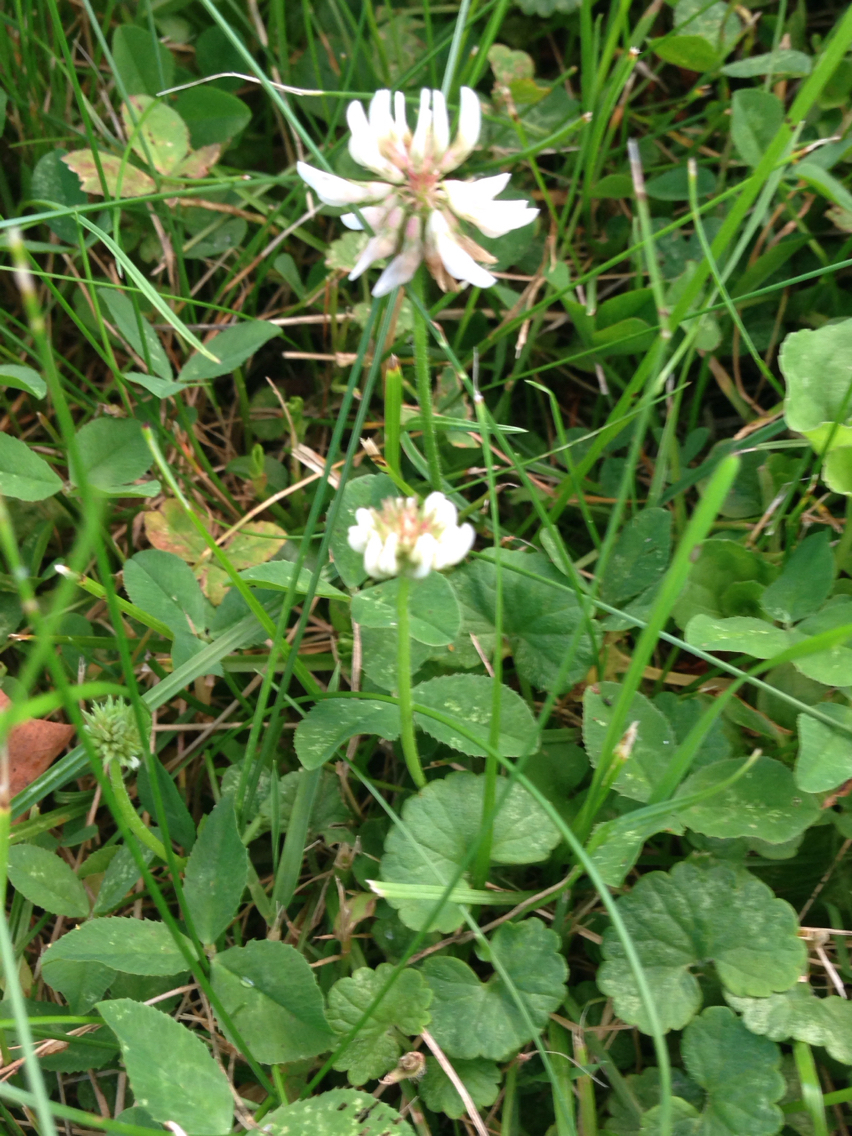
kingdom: Plantae
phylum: Tracheophyta
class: Magnoliopsida
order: Fabales
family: Fabaceae
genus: Trifolium
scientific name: Trifolium repens
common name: White clover
